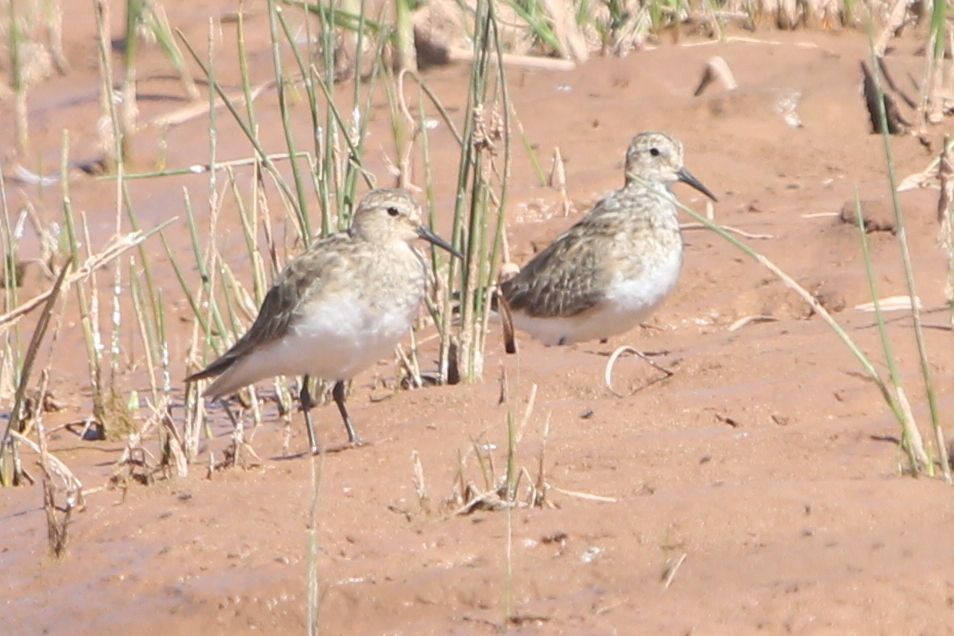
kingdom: Animalia
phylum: Chordata
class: Aves
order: Charadriiformes
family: Scolopacidae
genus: Calidris
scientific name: Calidris bairdii
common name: Baird's sandpiper
